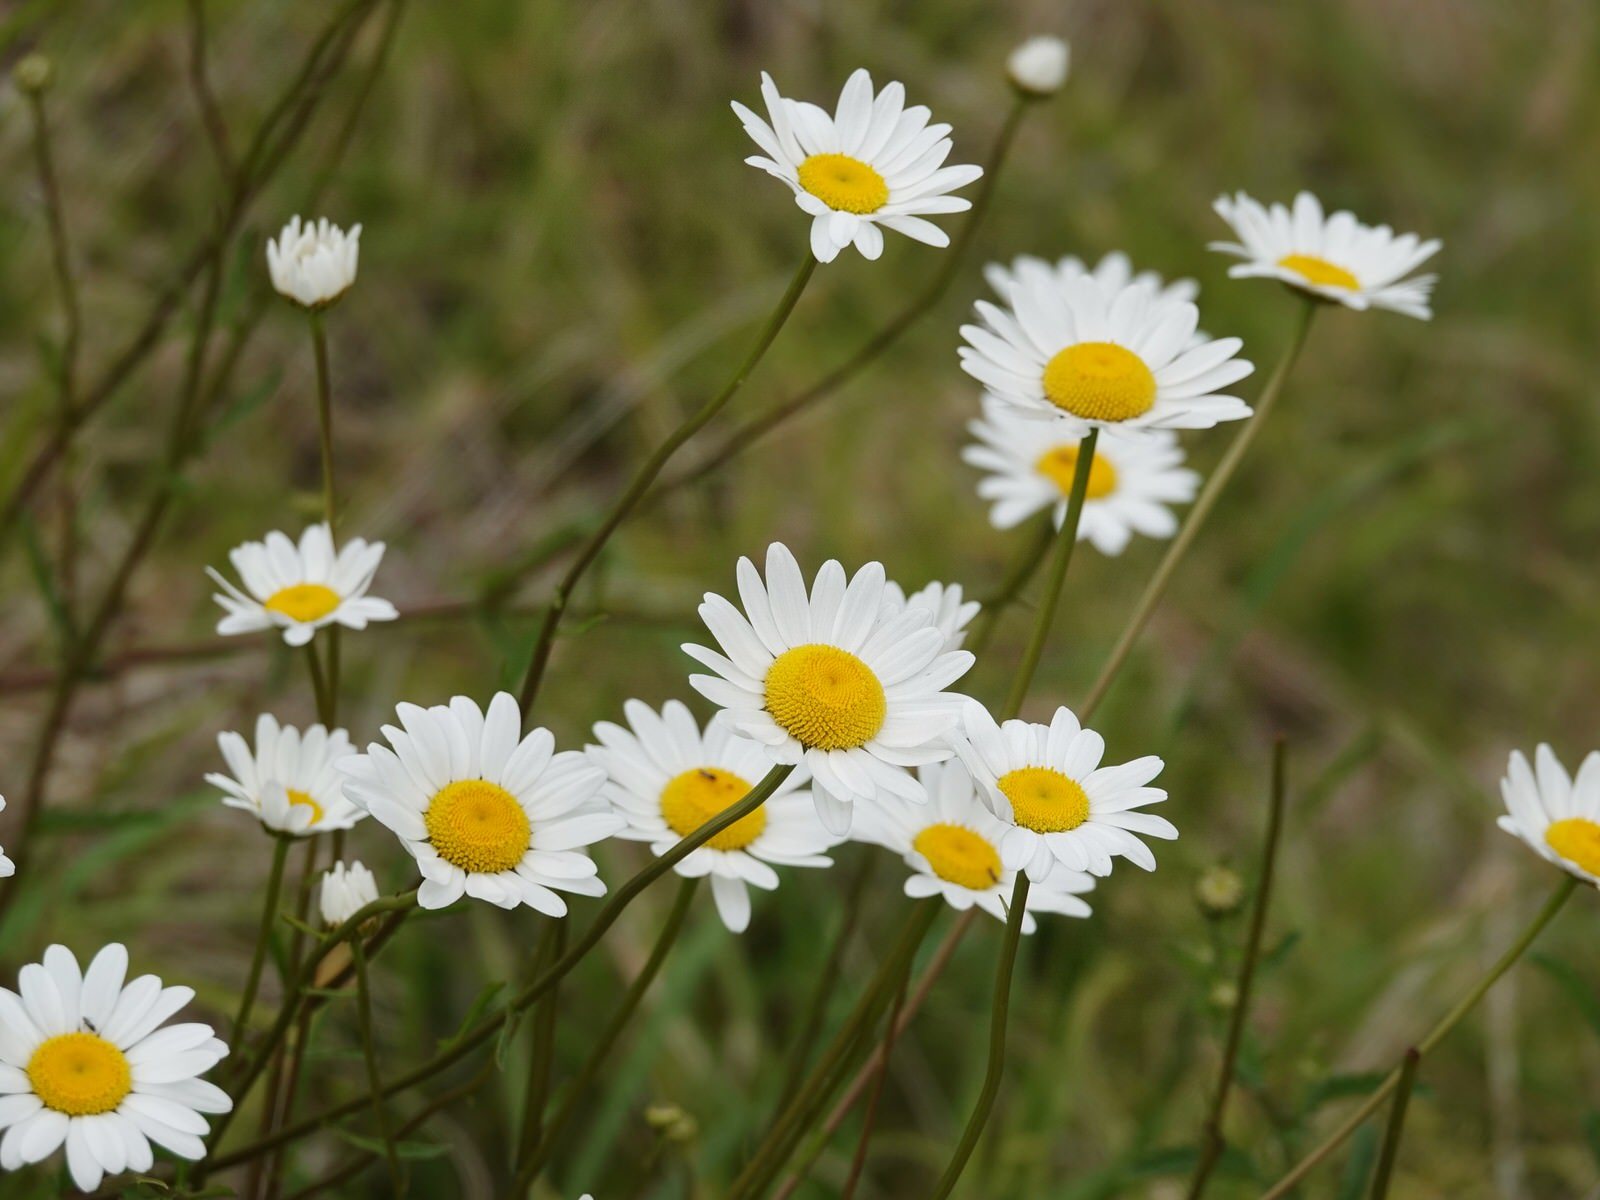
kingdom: Plantae
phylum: Tracheophyta
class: Magnoliopsida
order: Asterales
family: Asteraceae
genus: Leucanthemum
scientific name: Leucanthemum vulgare
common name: Oxeye daisy
